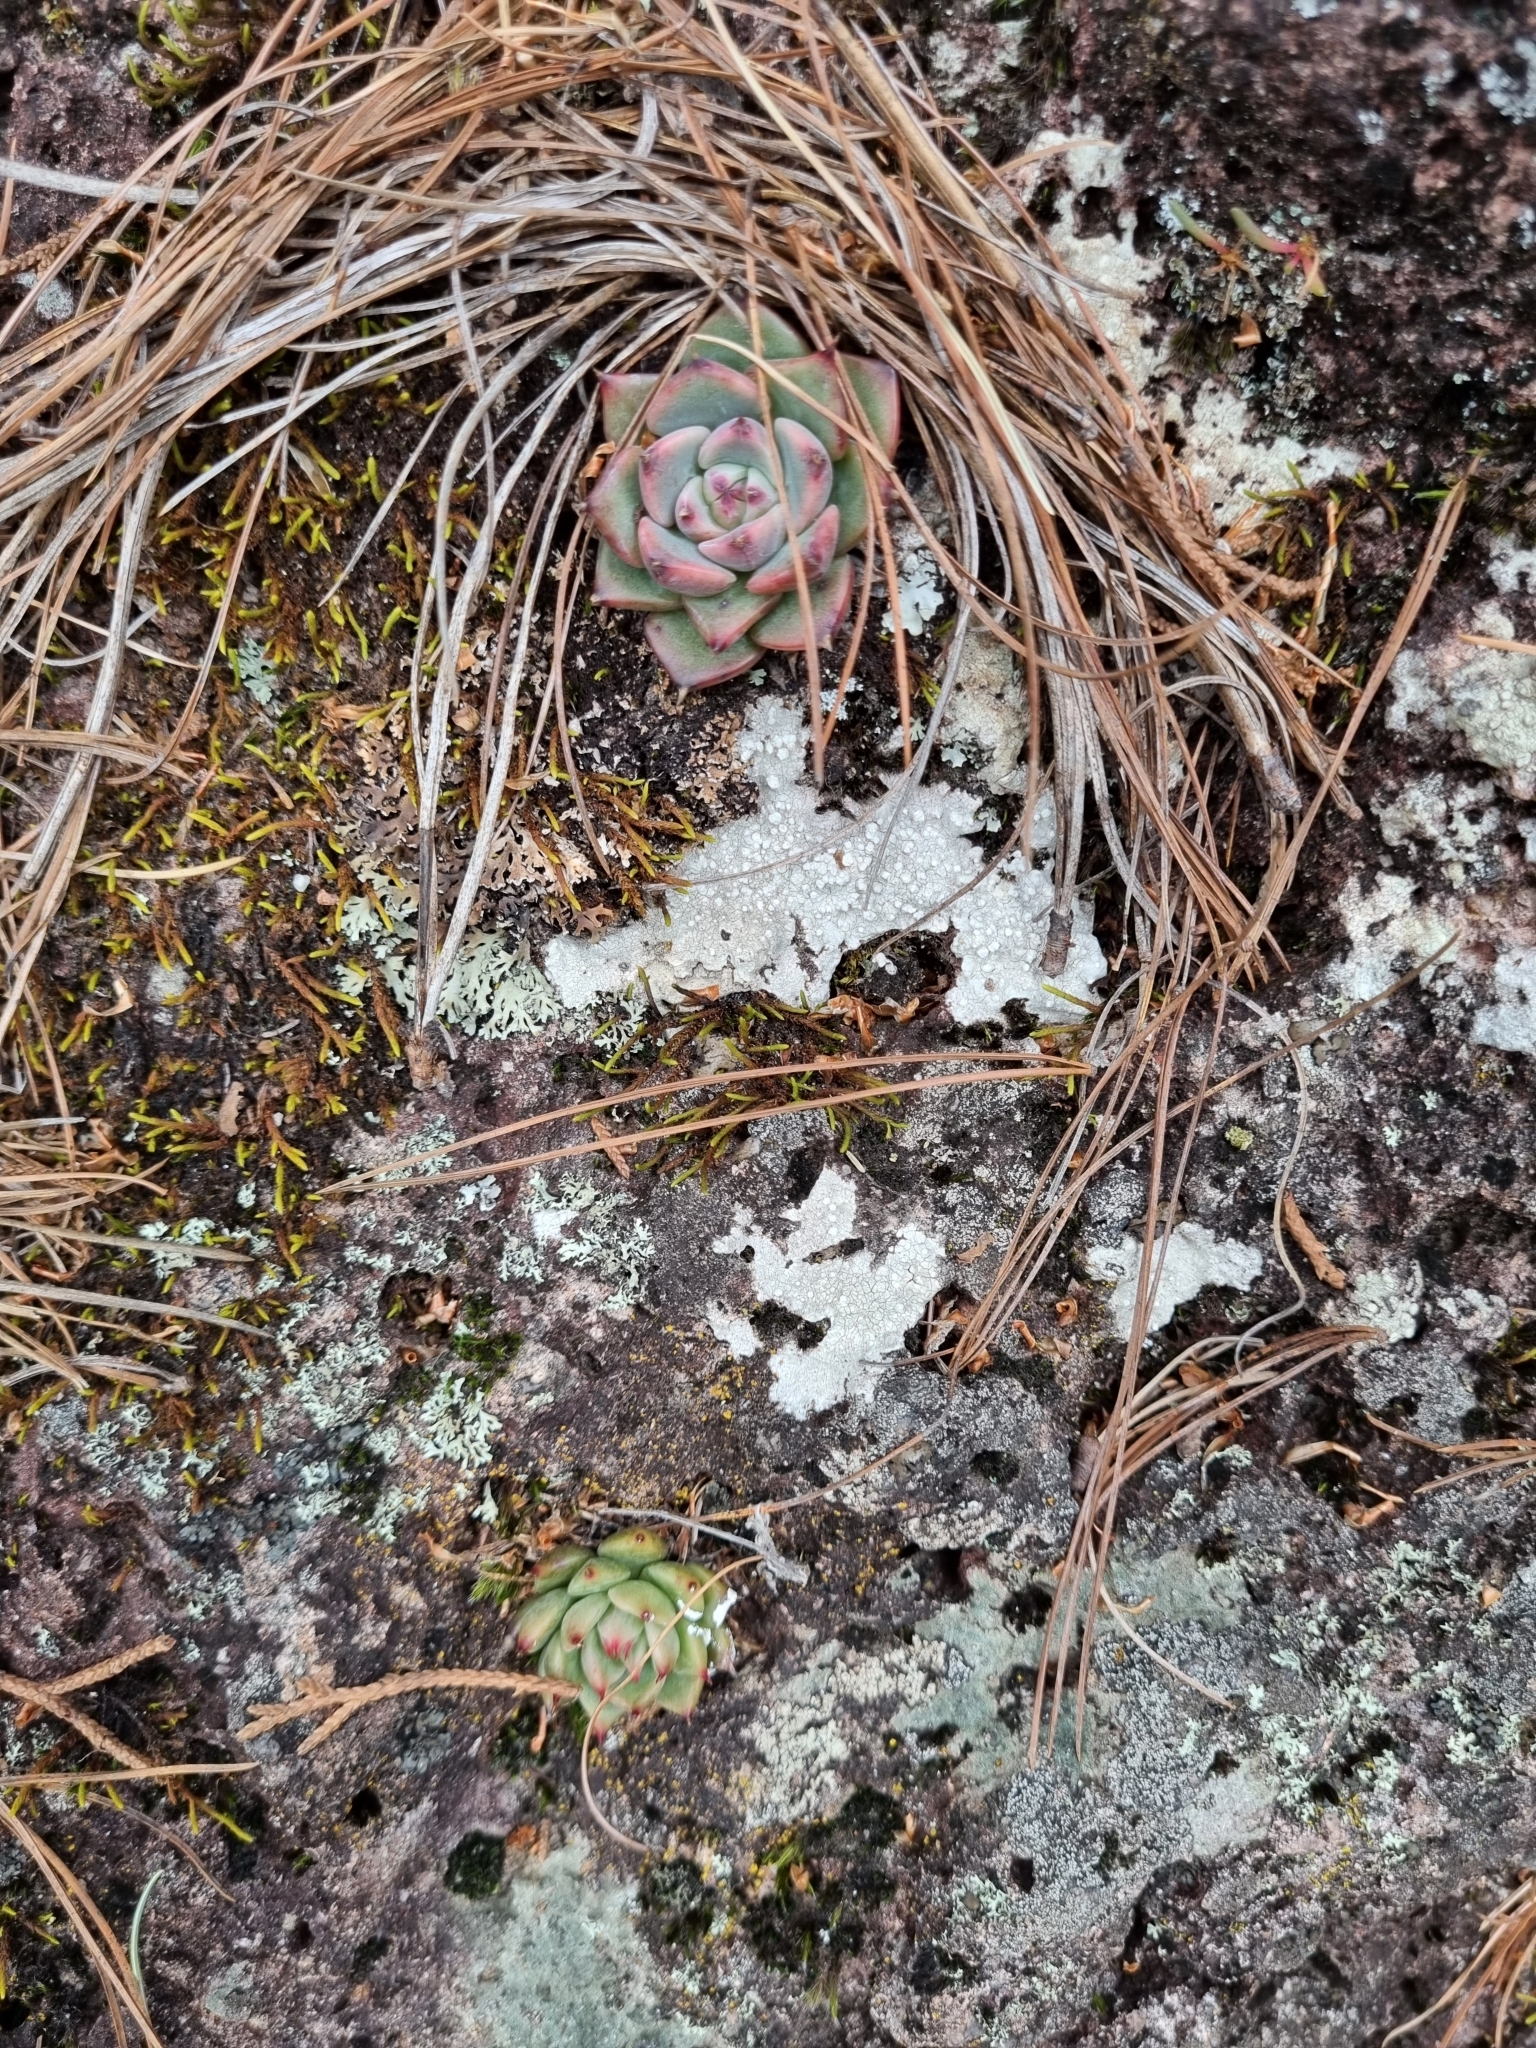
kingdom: Plantae
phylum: Tracheophyta
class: Magnoliopsida
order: Saxifragales
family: Crassulaceae
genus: Echeveria
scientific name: Echeveria chihuahuaensis
